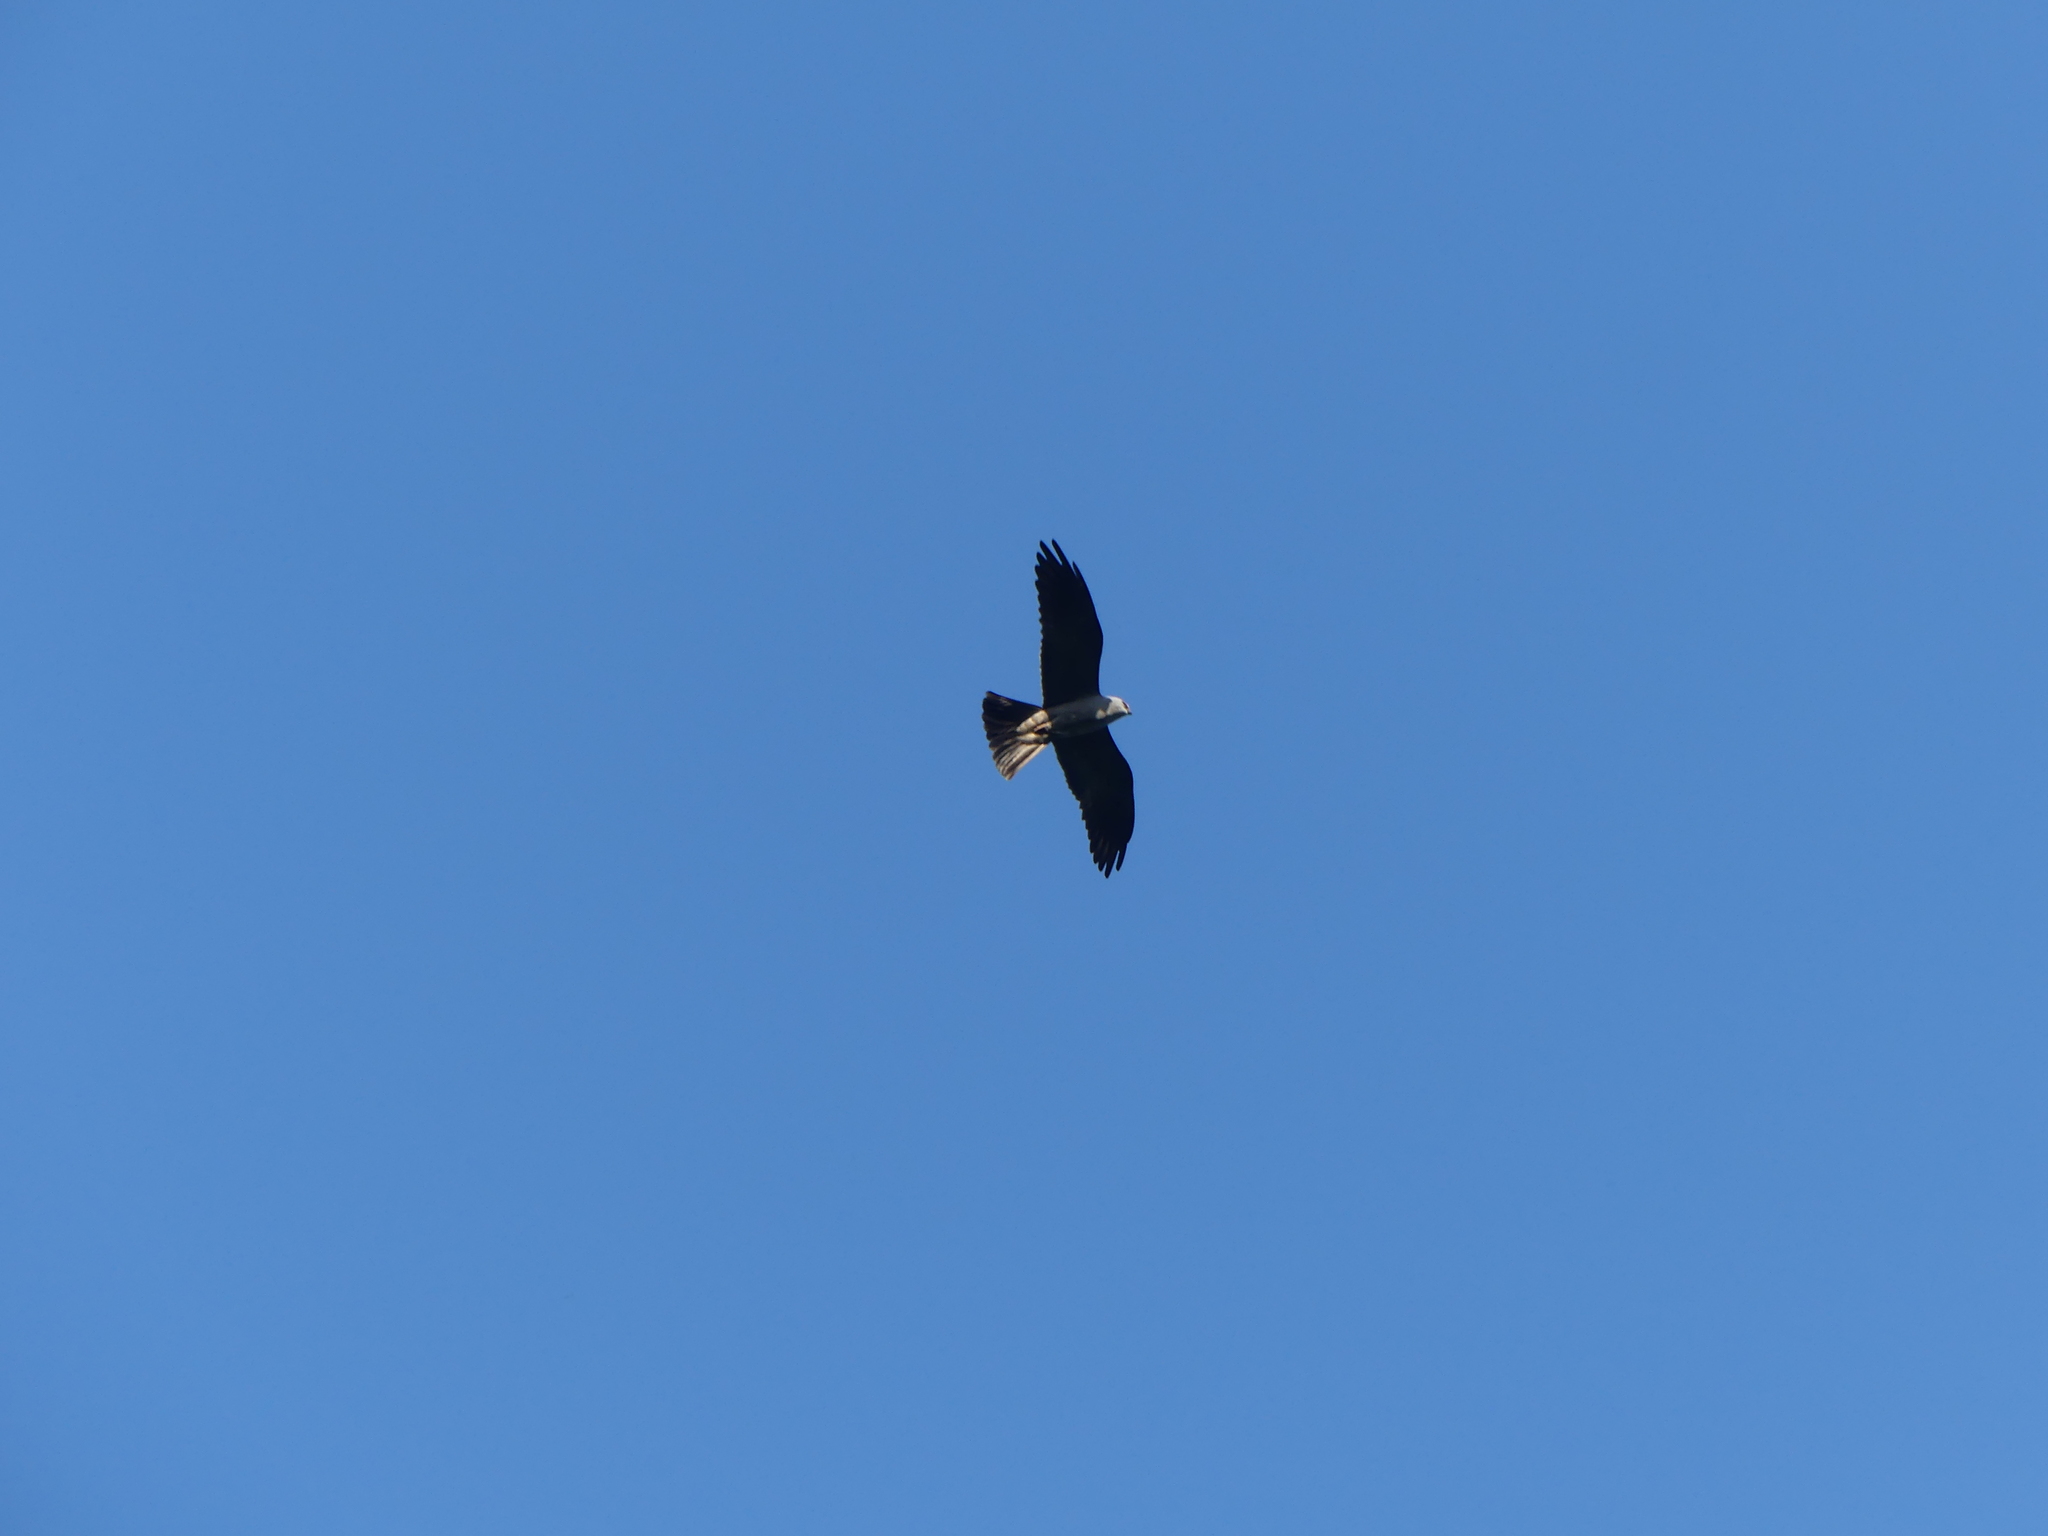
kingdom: Animalia
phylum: Chordata
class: Aves
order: Accipitriformes
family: Accipitridae
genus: Ictinia
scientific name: Ictinia mississippiensis
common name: Mississippi kite
